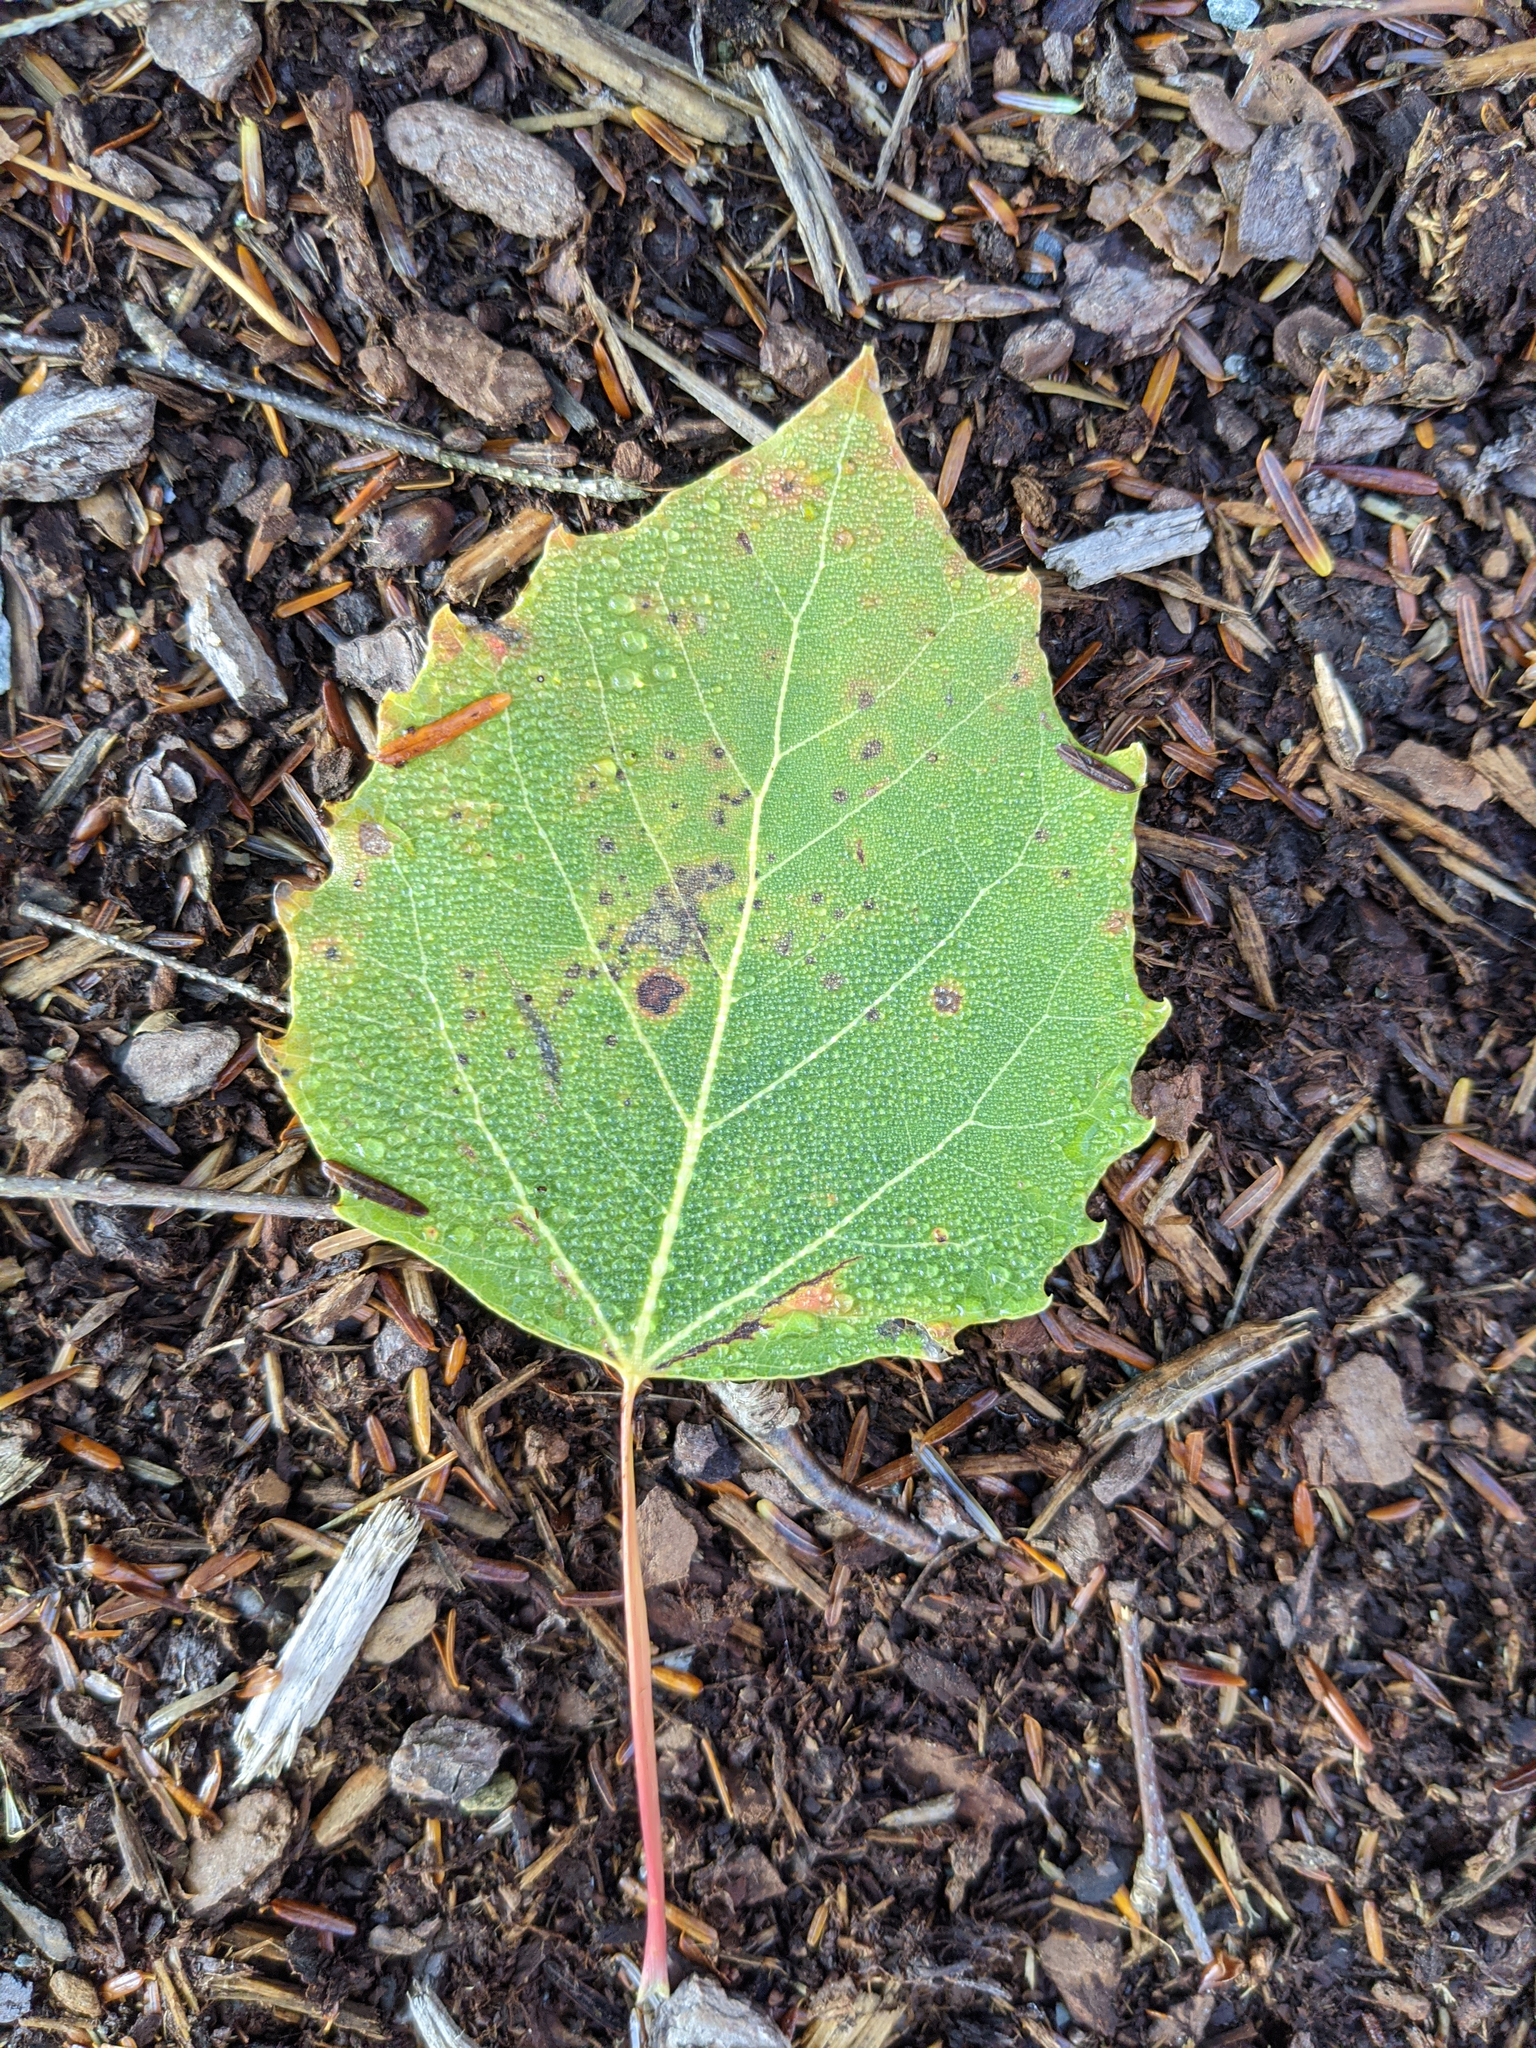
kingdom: Plantae
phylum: Tracheophyta
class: Magnoliopsida
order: Malpighiales
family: Salicaceae
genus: Populus
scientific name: Populus grandidentata
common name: Bigtooth aspen
